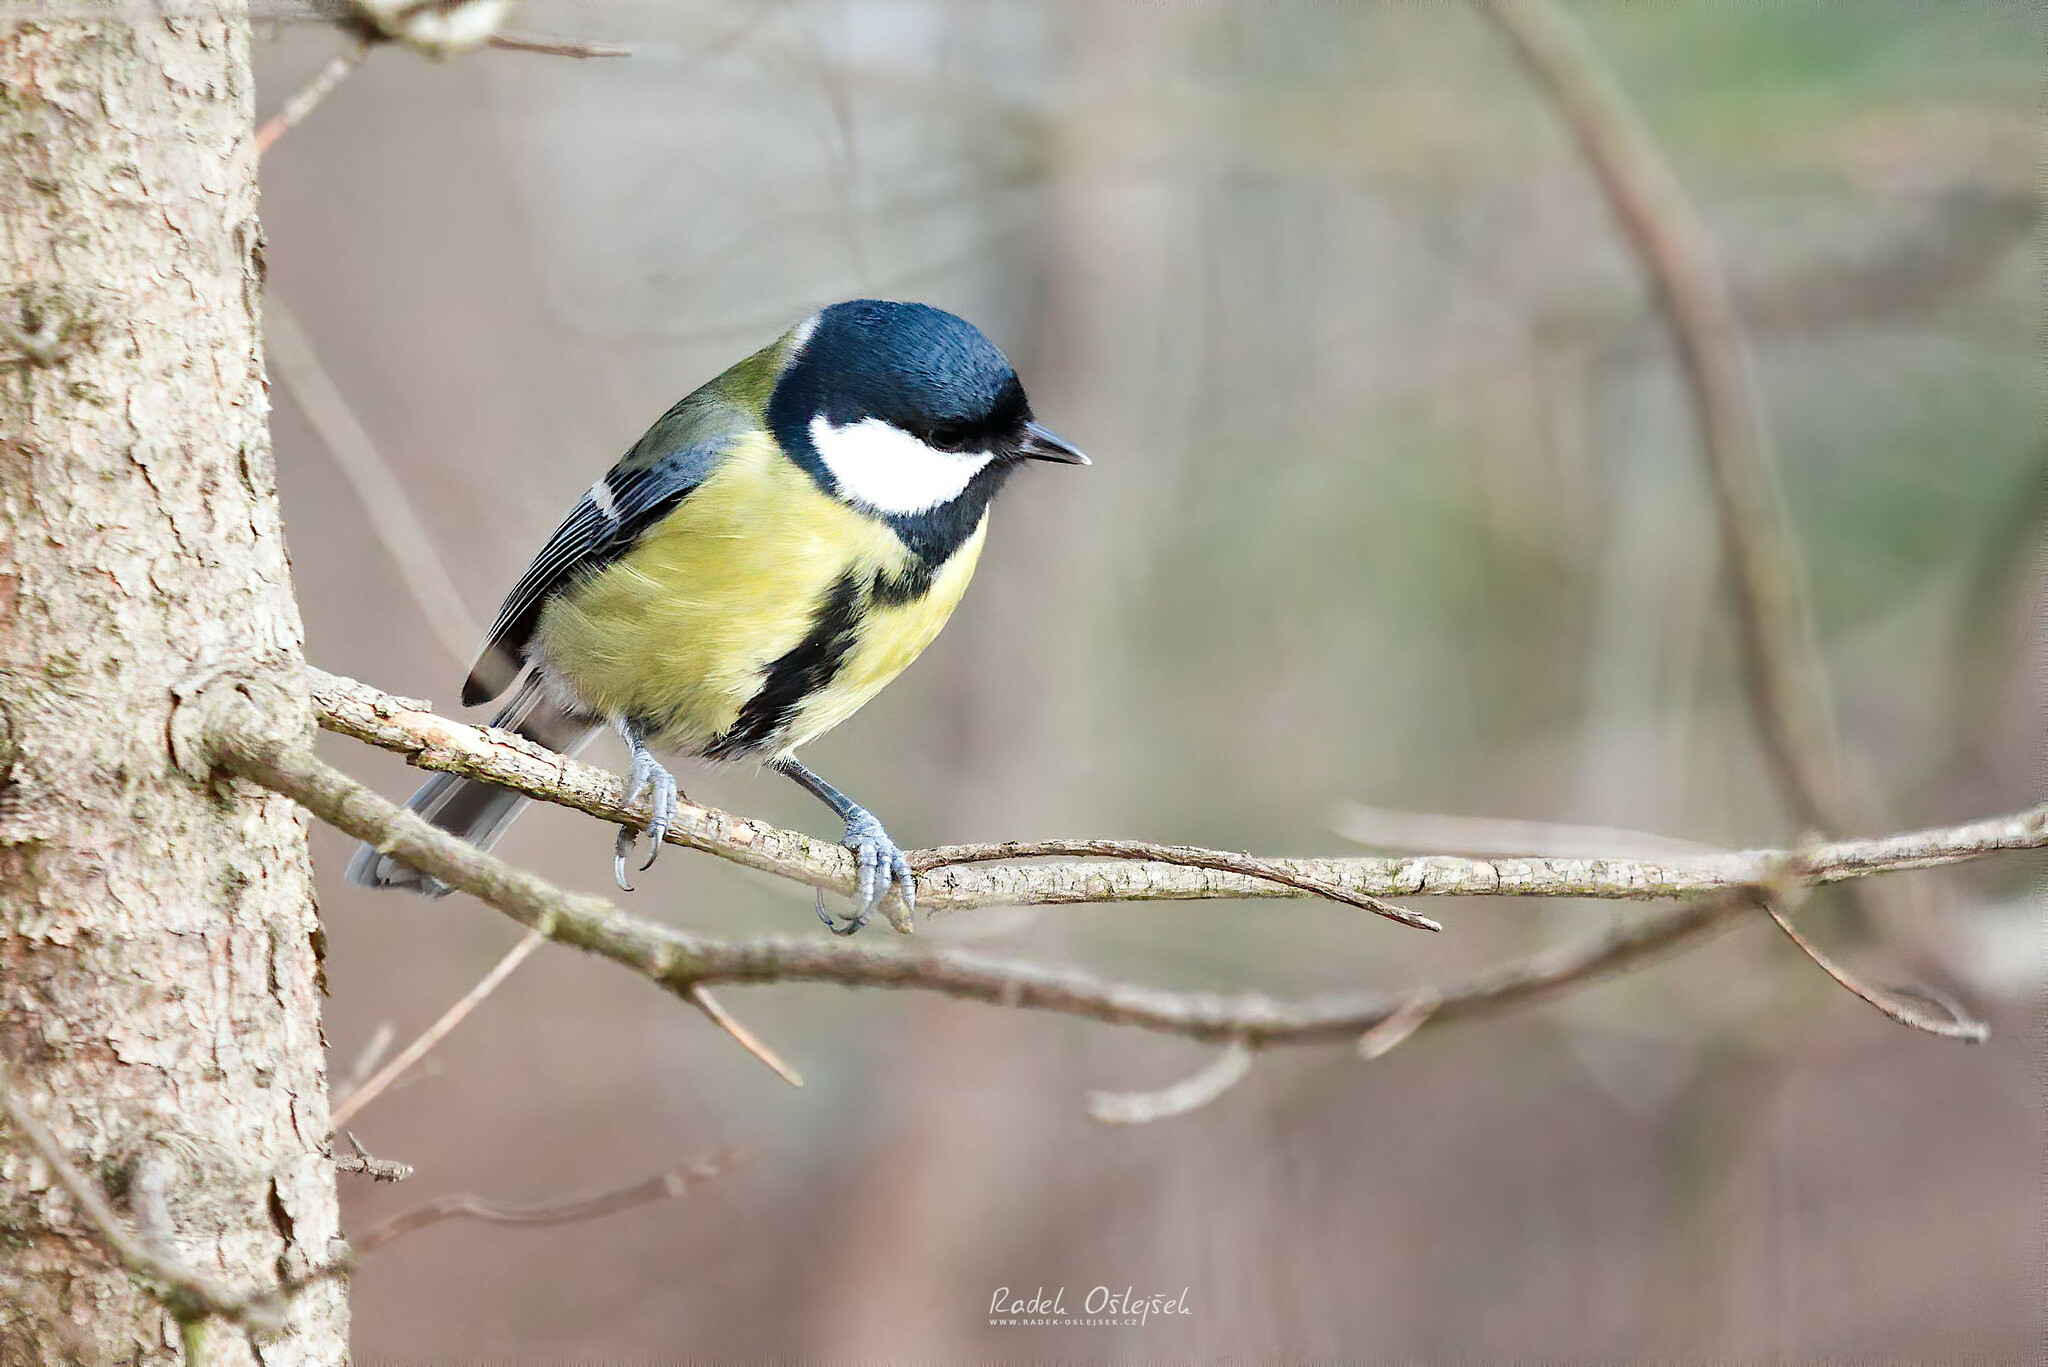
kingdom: Animalia
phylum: Chordata
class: Aves
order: Passeriformes
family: Paridae
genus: Parus
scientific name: Parus major
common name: Great tit
